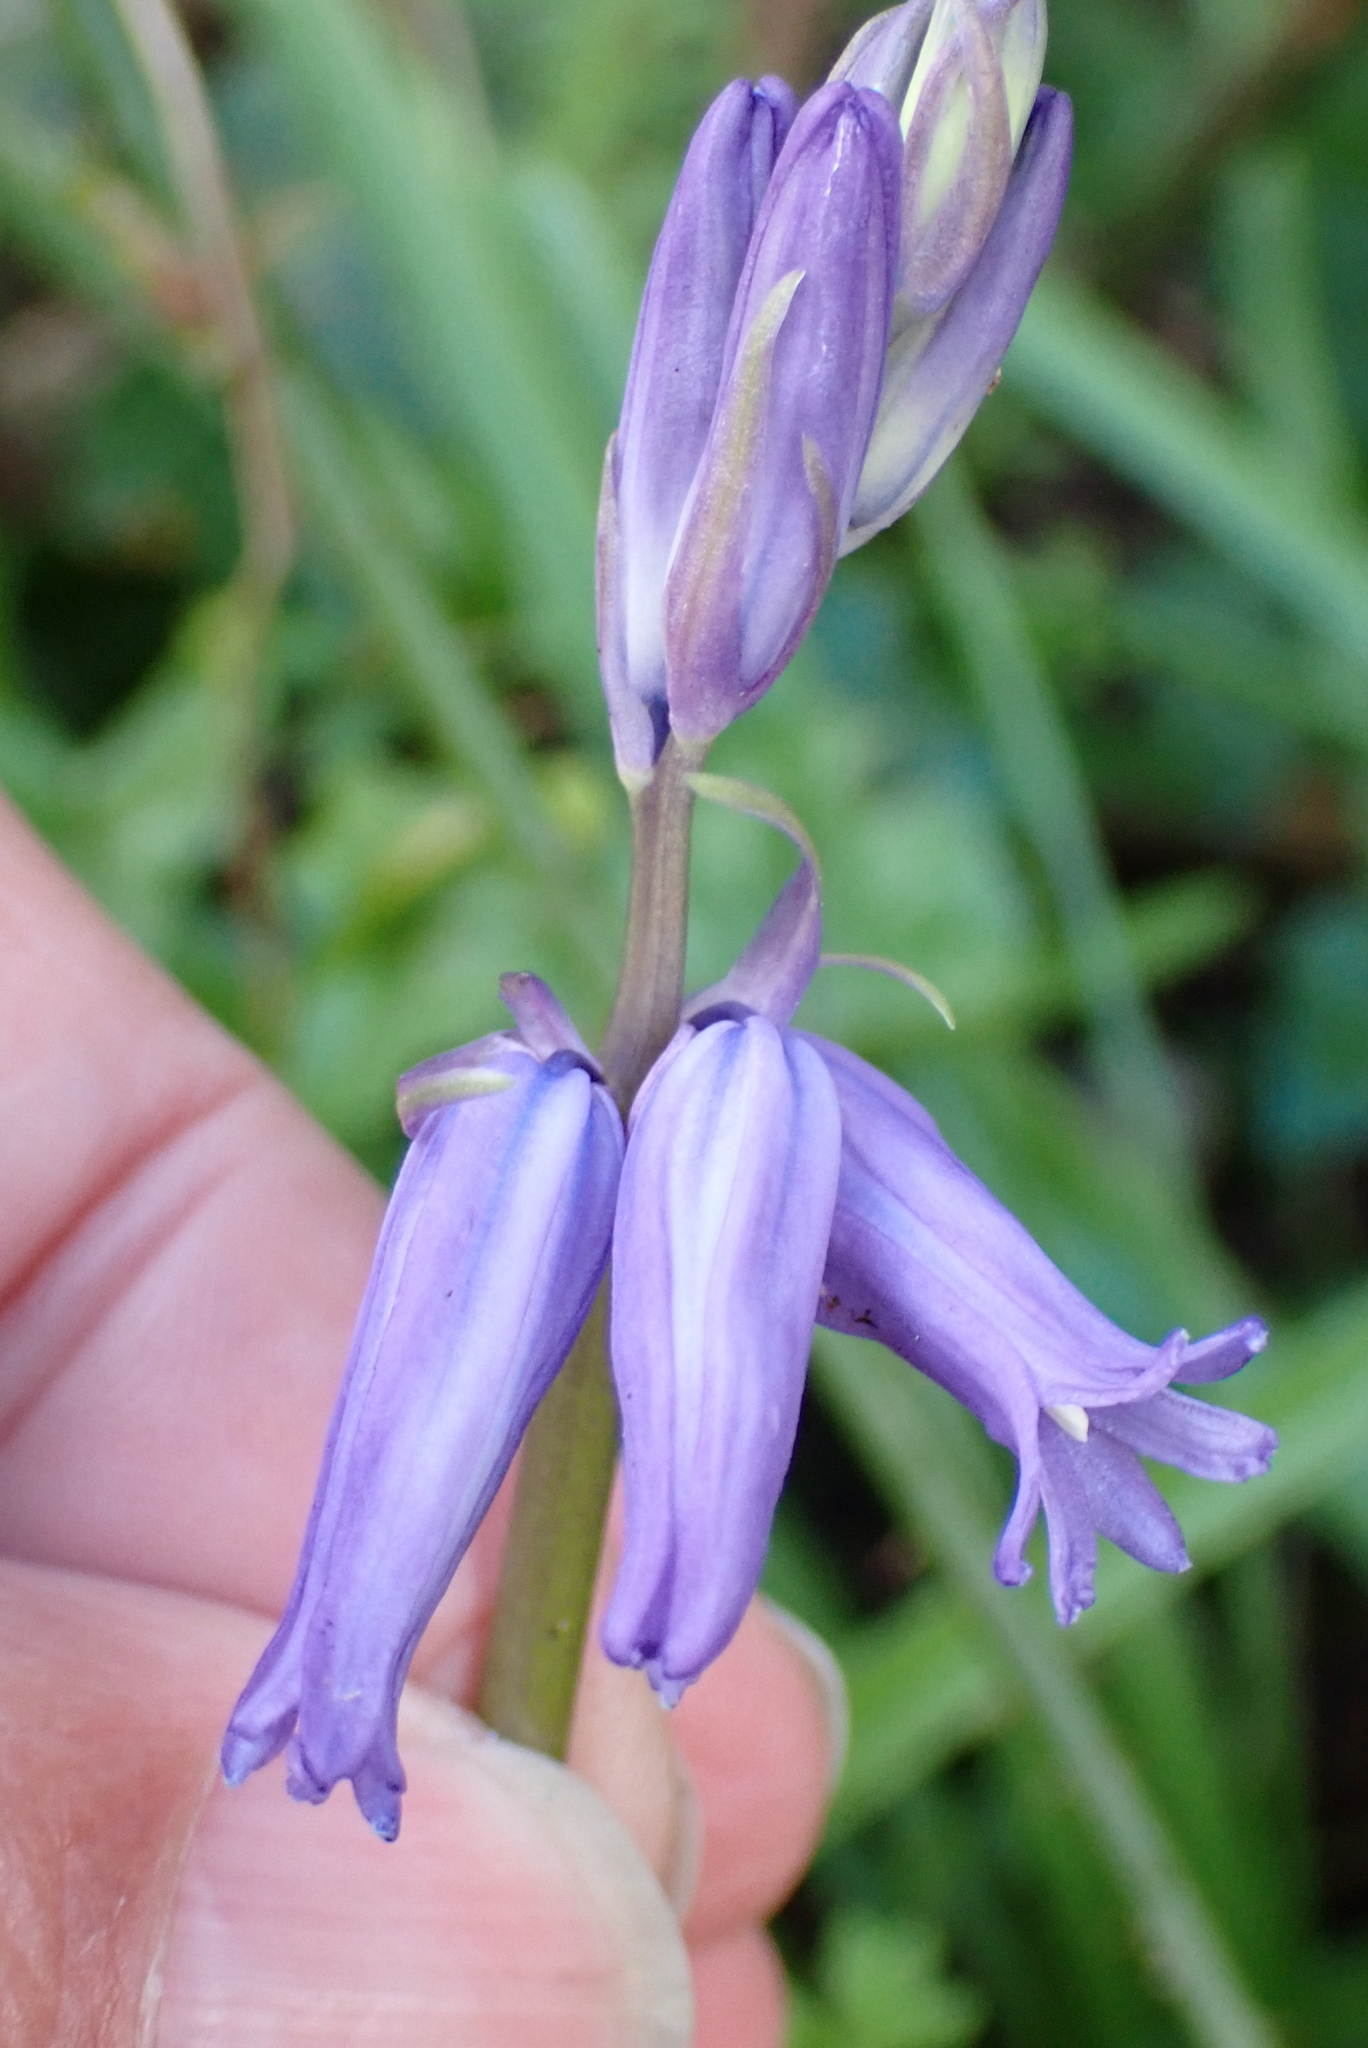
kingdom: Plantae
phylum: Tracheophyta
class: Liliopsida
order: Asparagales
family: Asparagaceae
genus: Hyacinthoides
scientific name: Hyacinthoides non-scripta
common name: Bluebell
